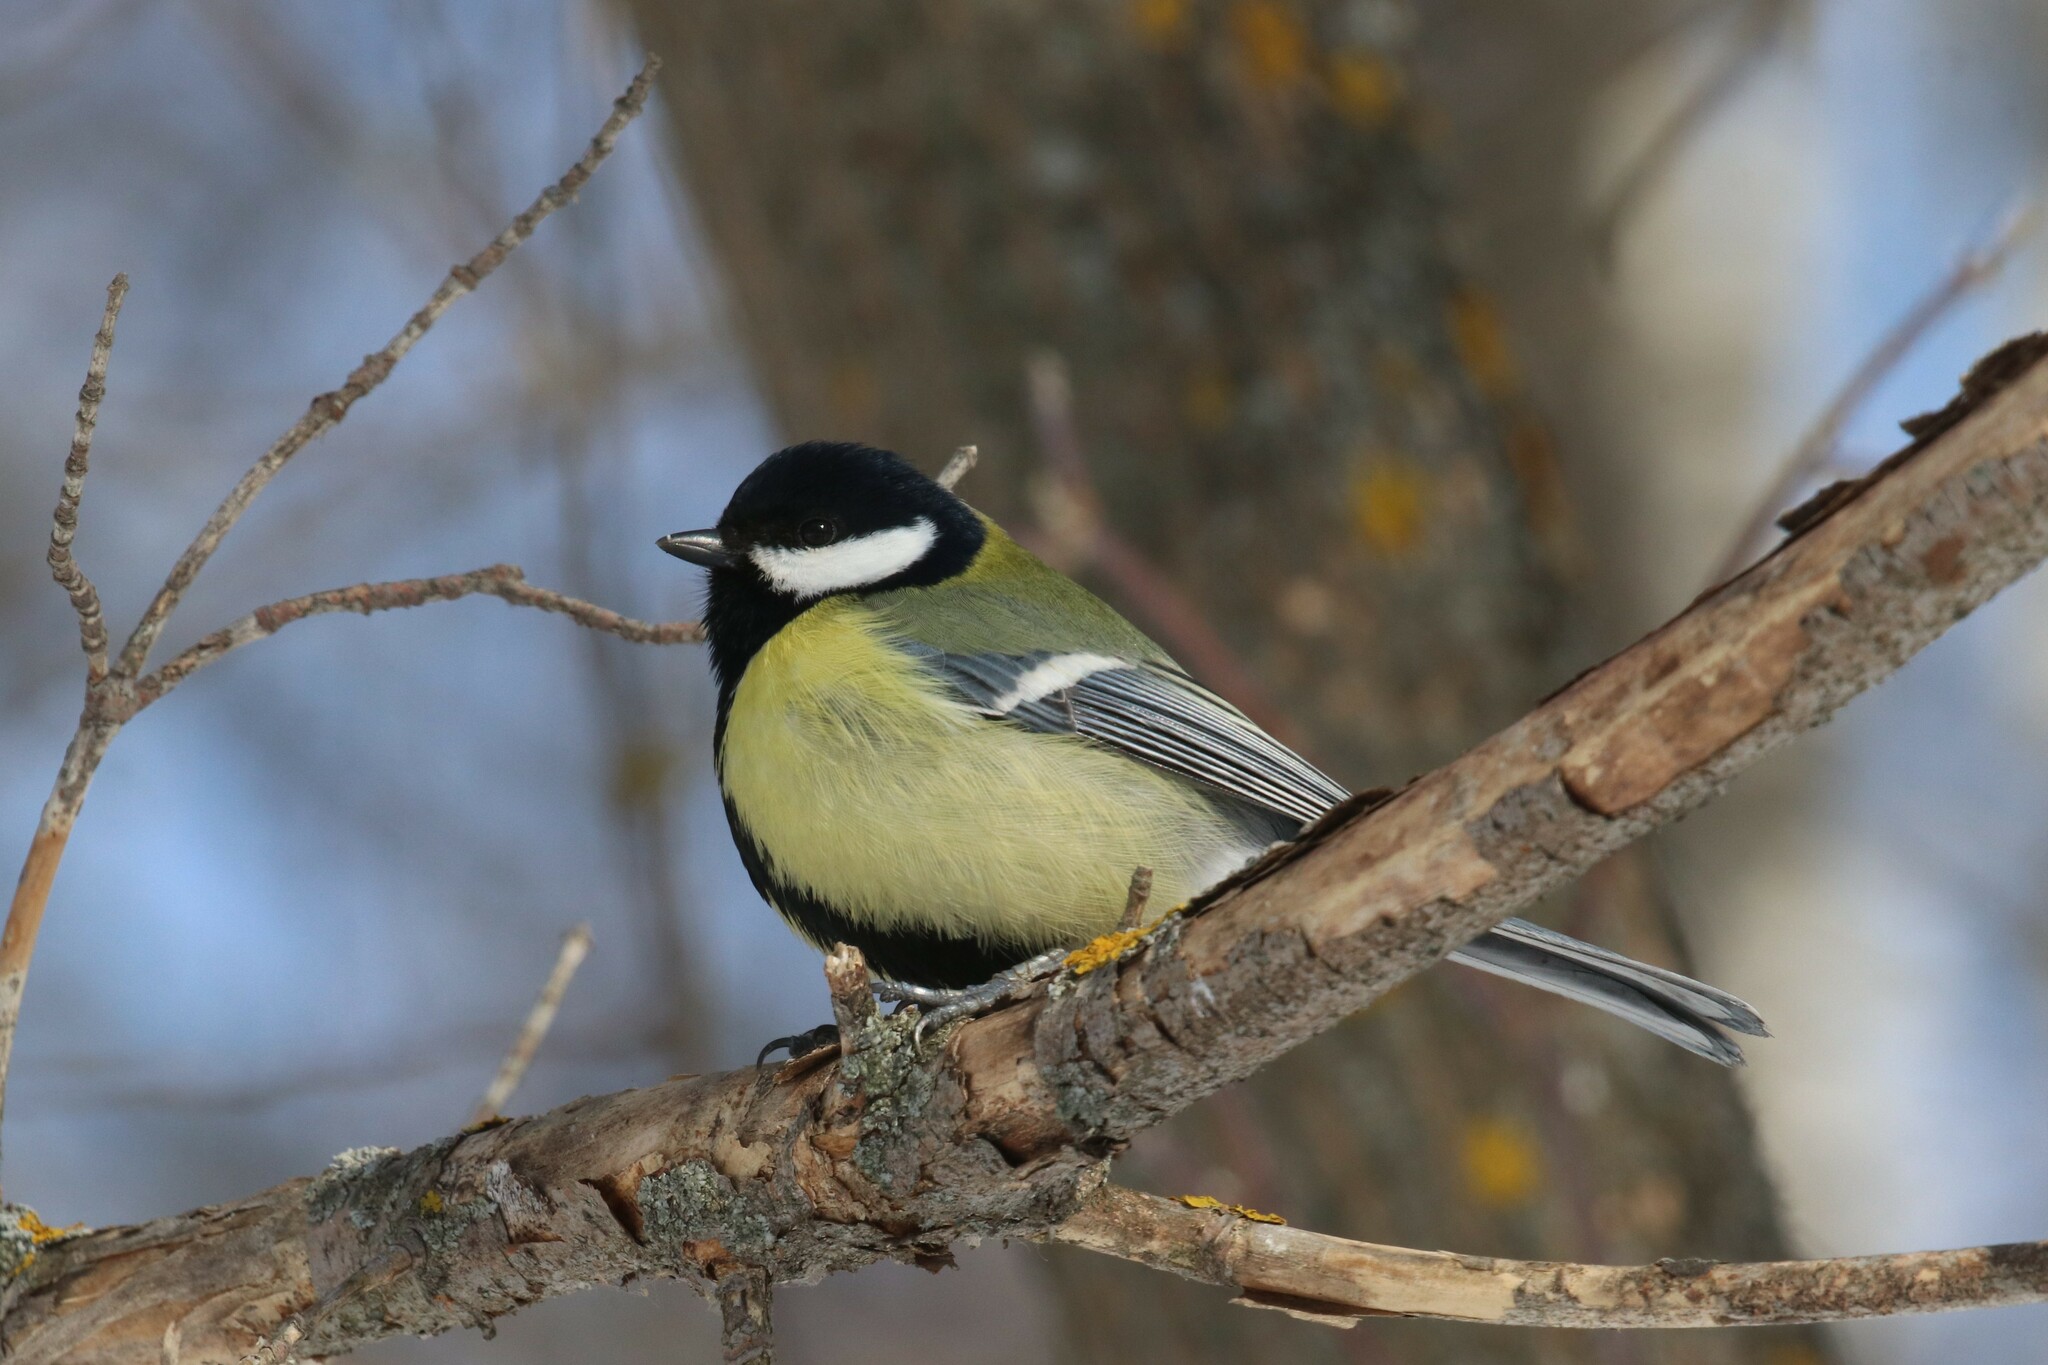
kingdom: Animalia
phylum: Chordata
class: Aves
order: Passeriformes
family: Paridae
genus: Parus
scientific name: Parus major
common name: Great tit
